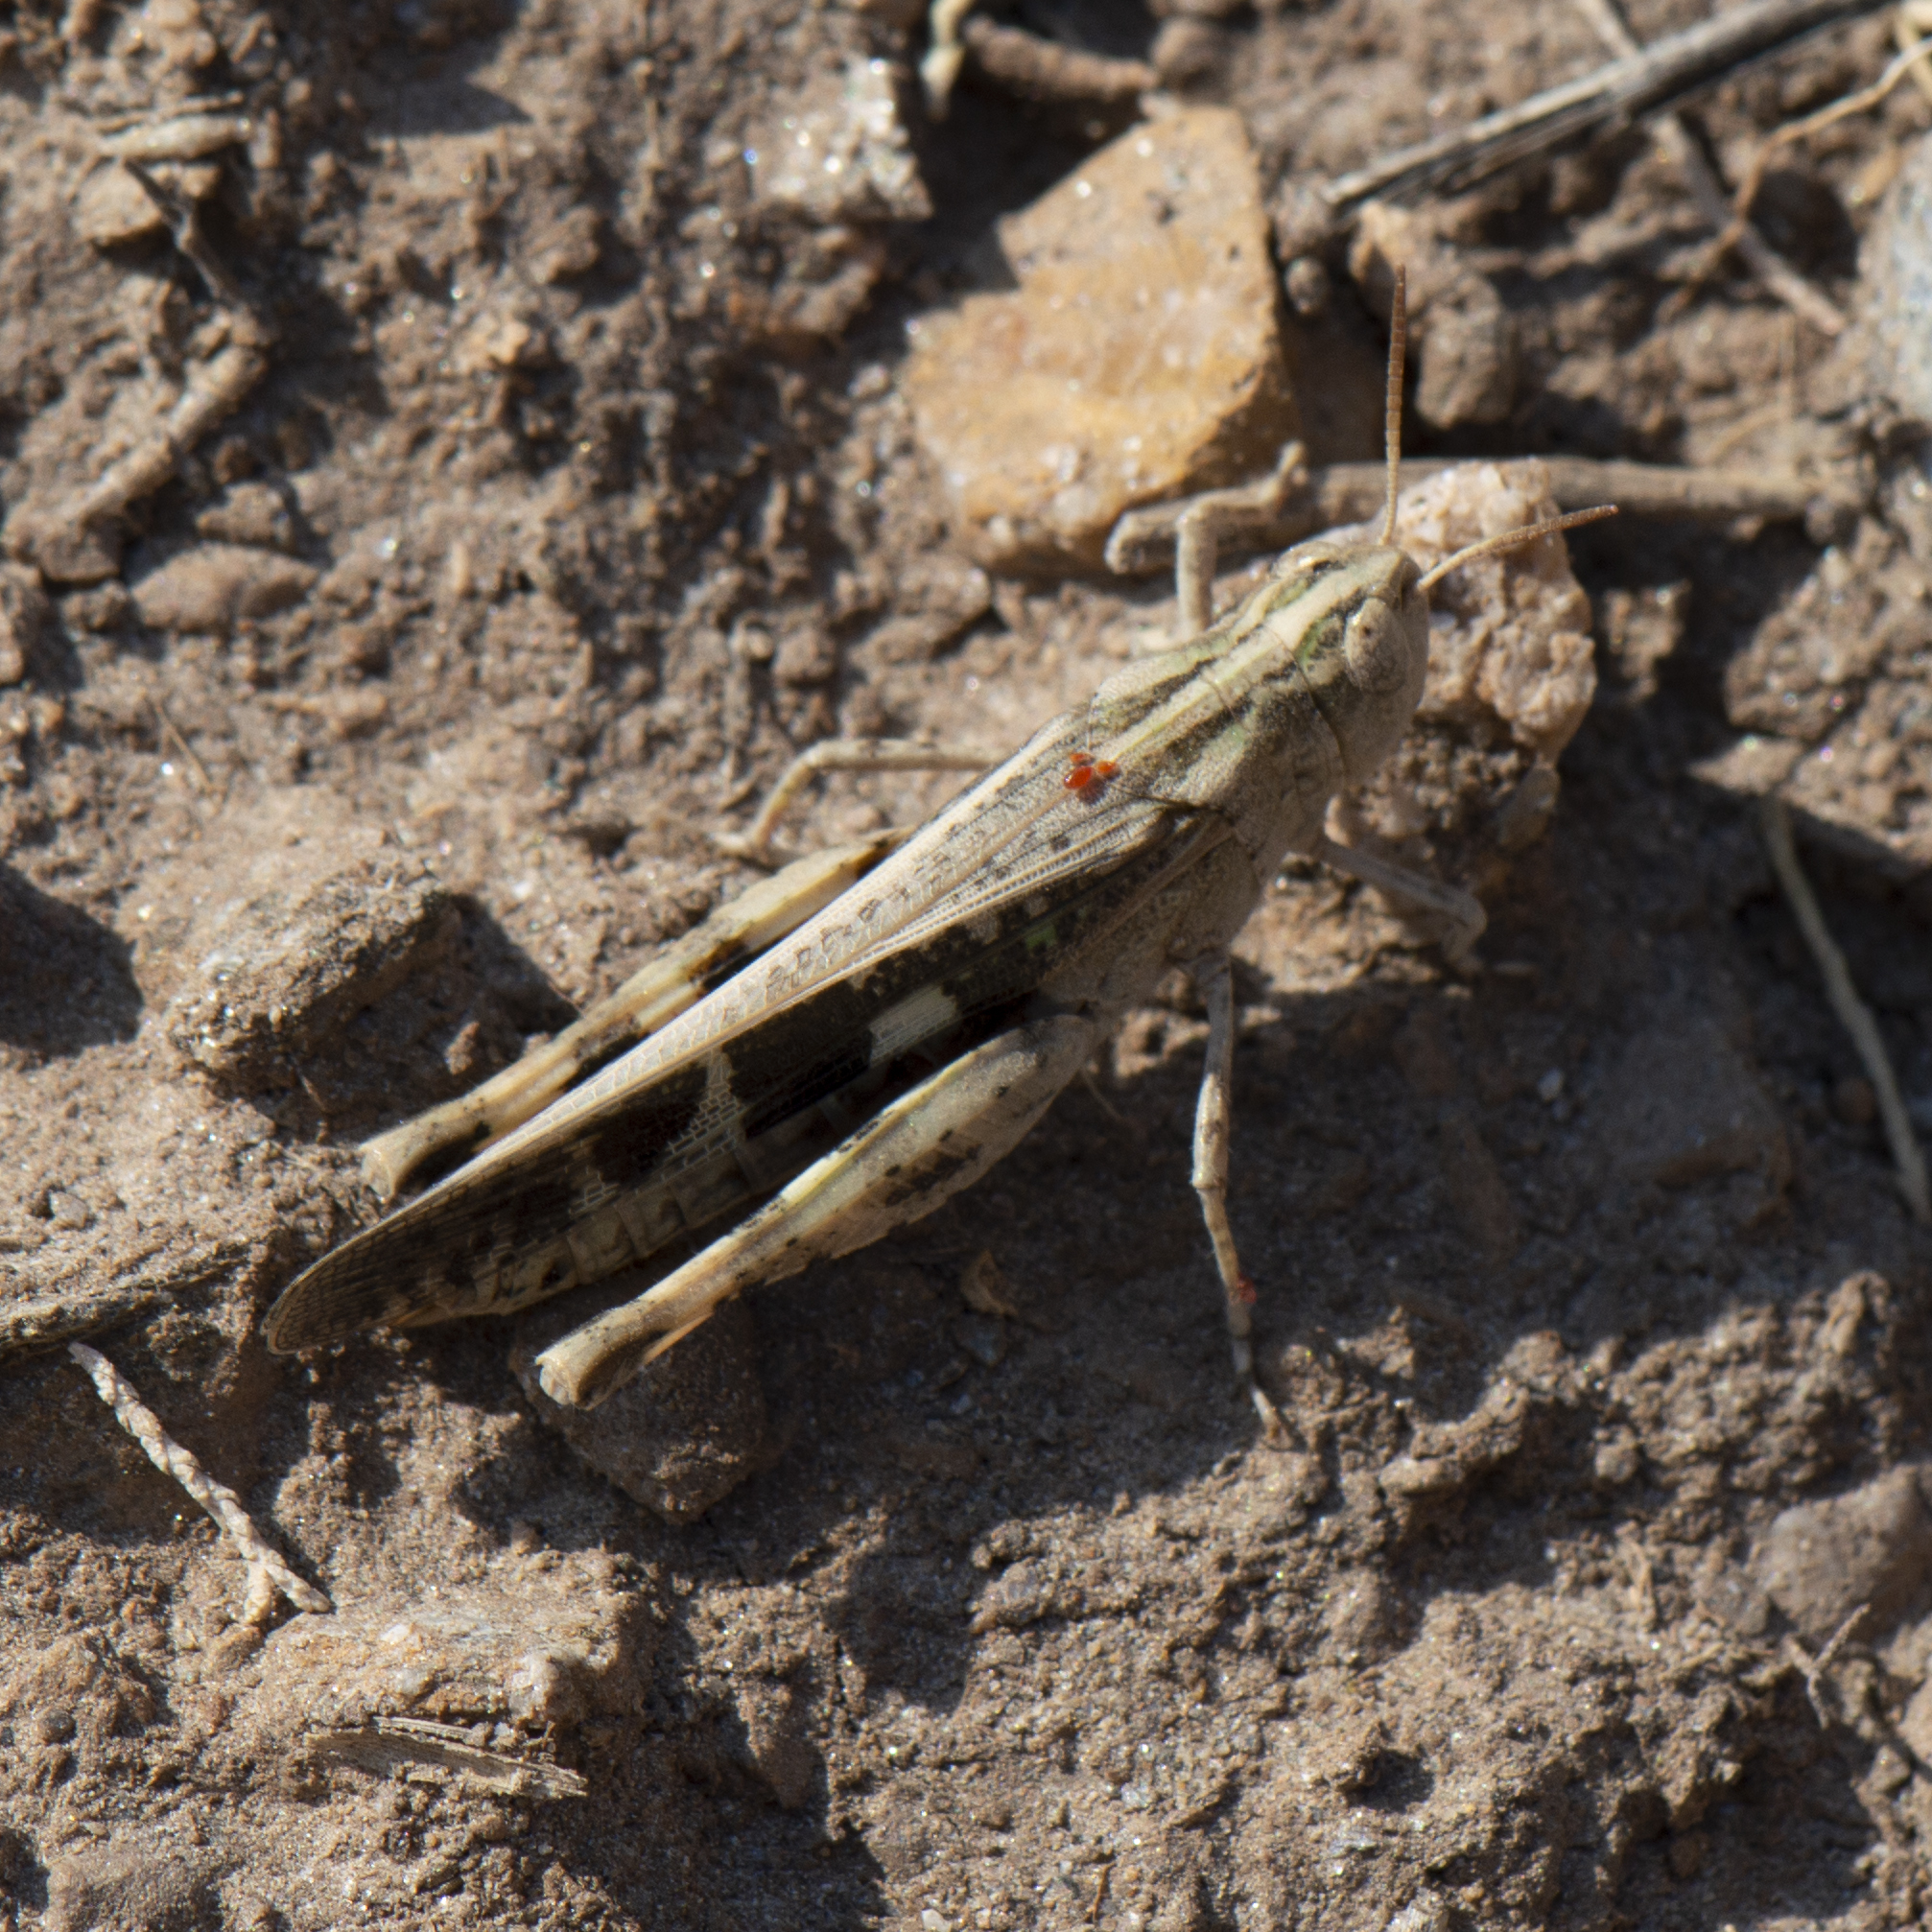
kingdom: Animalia
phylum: Arthropoda
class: Insecta
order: Orthoptera
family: Acrididae
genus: Aiolopus
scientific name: Aiolopus strepens
